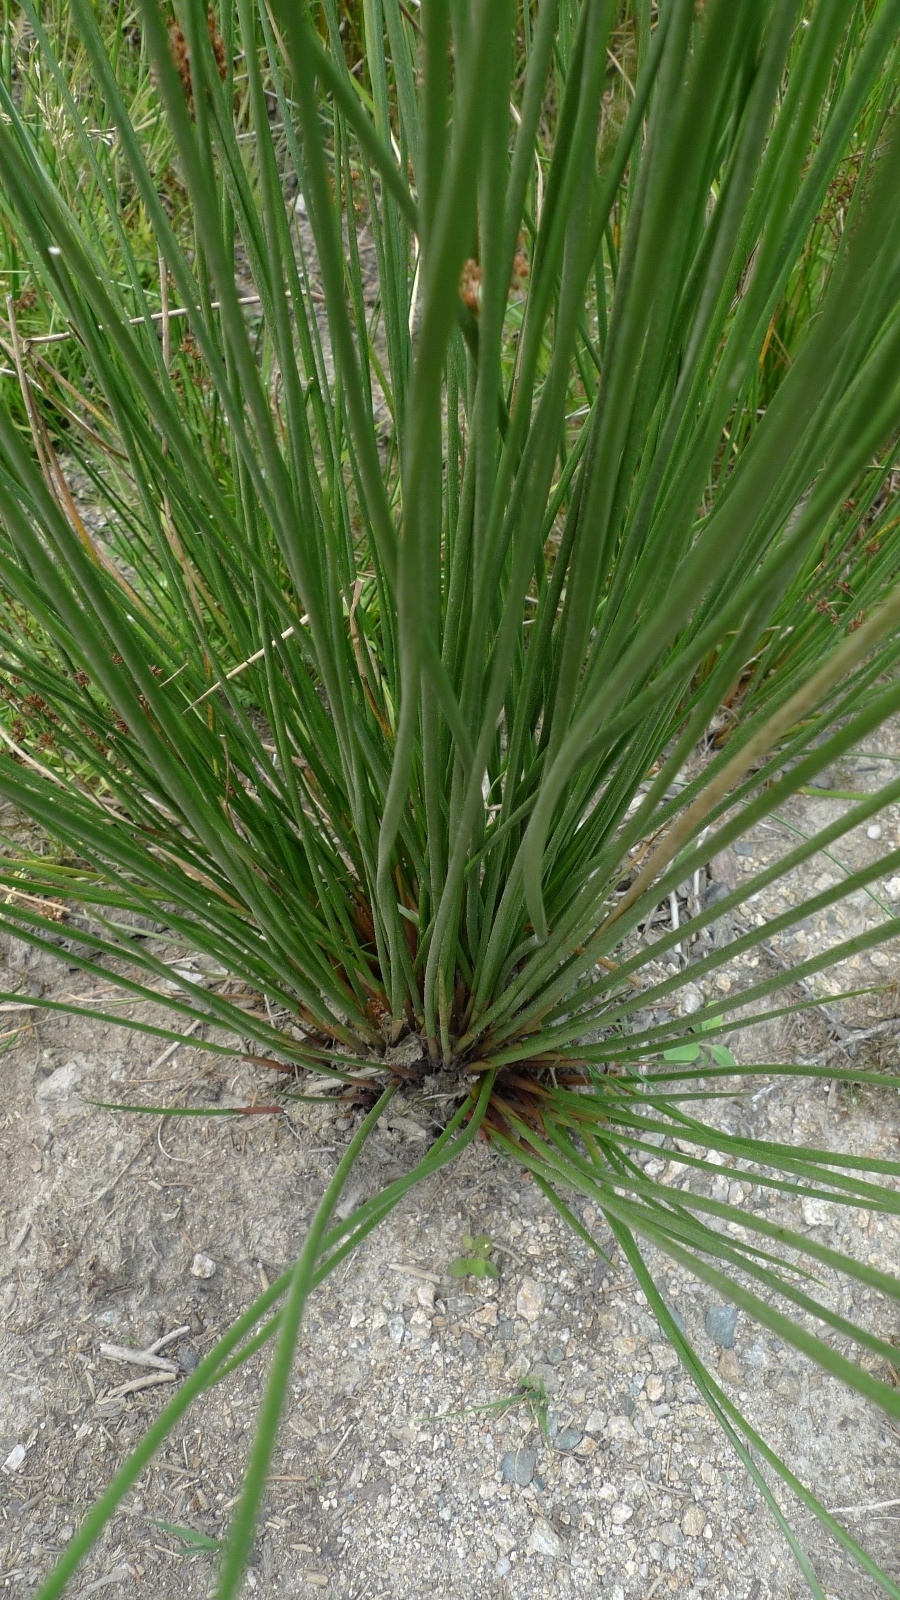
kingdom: Plantae
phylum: Tracheophyta
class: Liliopsida
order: Poales
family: Juncaceae
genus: Juncus
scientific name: Juncus effusus
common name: Soft rush
